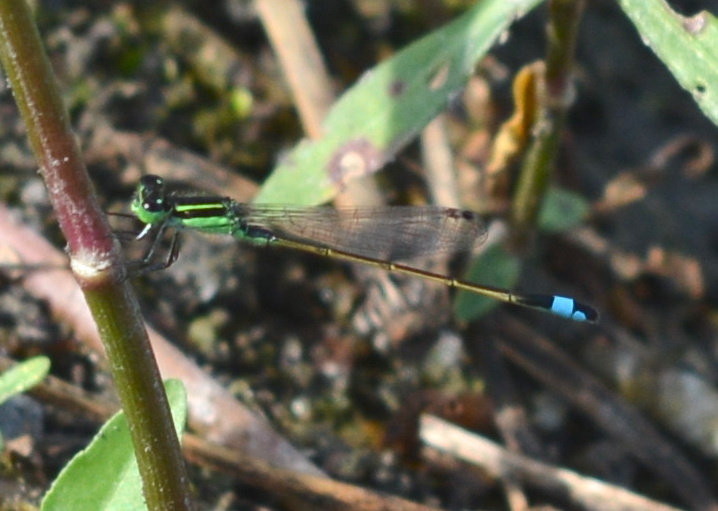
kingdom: Animalia
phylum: Arthropoda
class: Insecta
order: Odonata
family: Coenagrionidae
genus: Ischnura
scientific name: Ischnura ramburii
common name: Rambur's forktail
